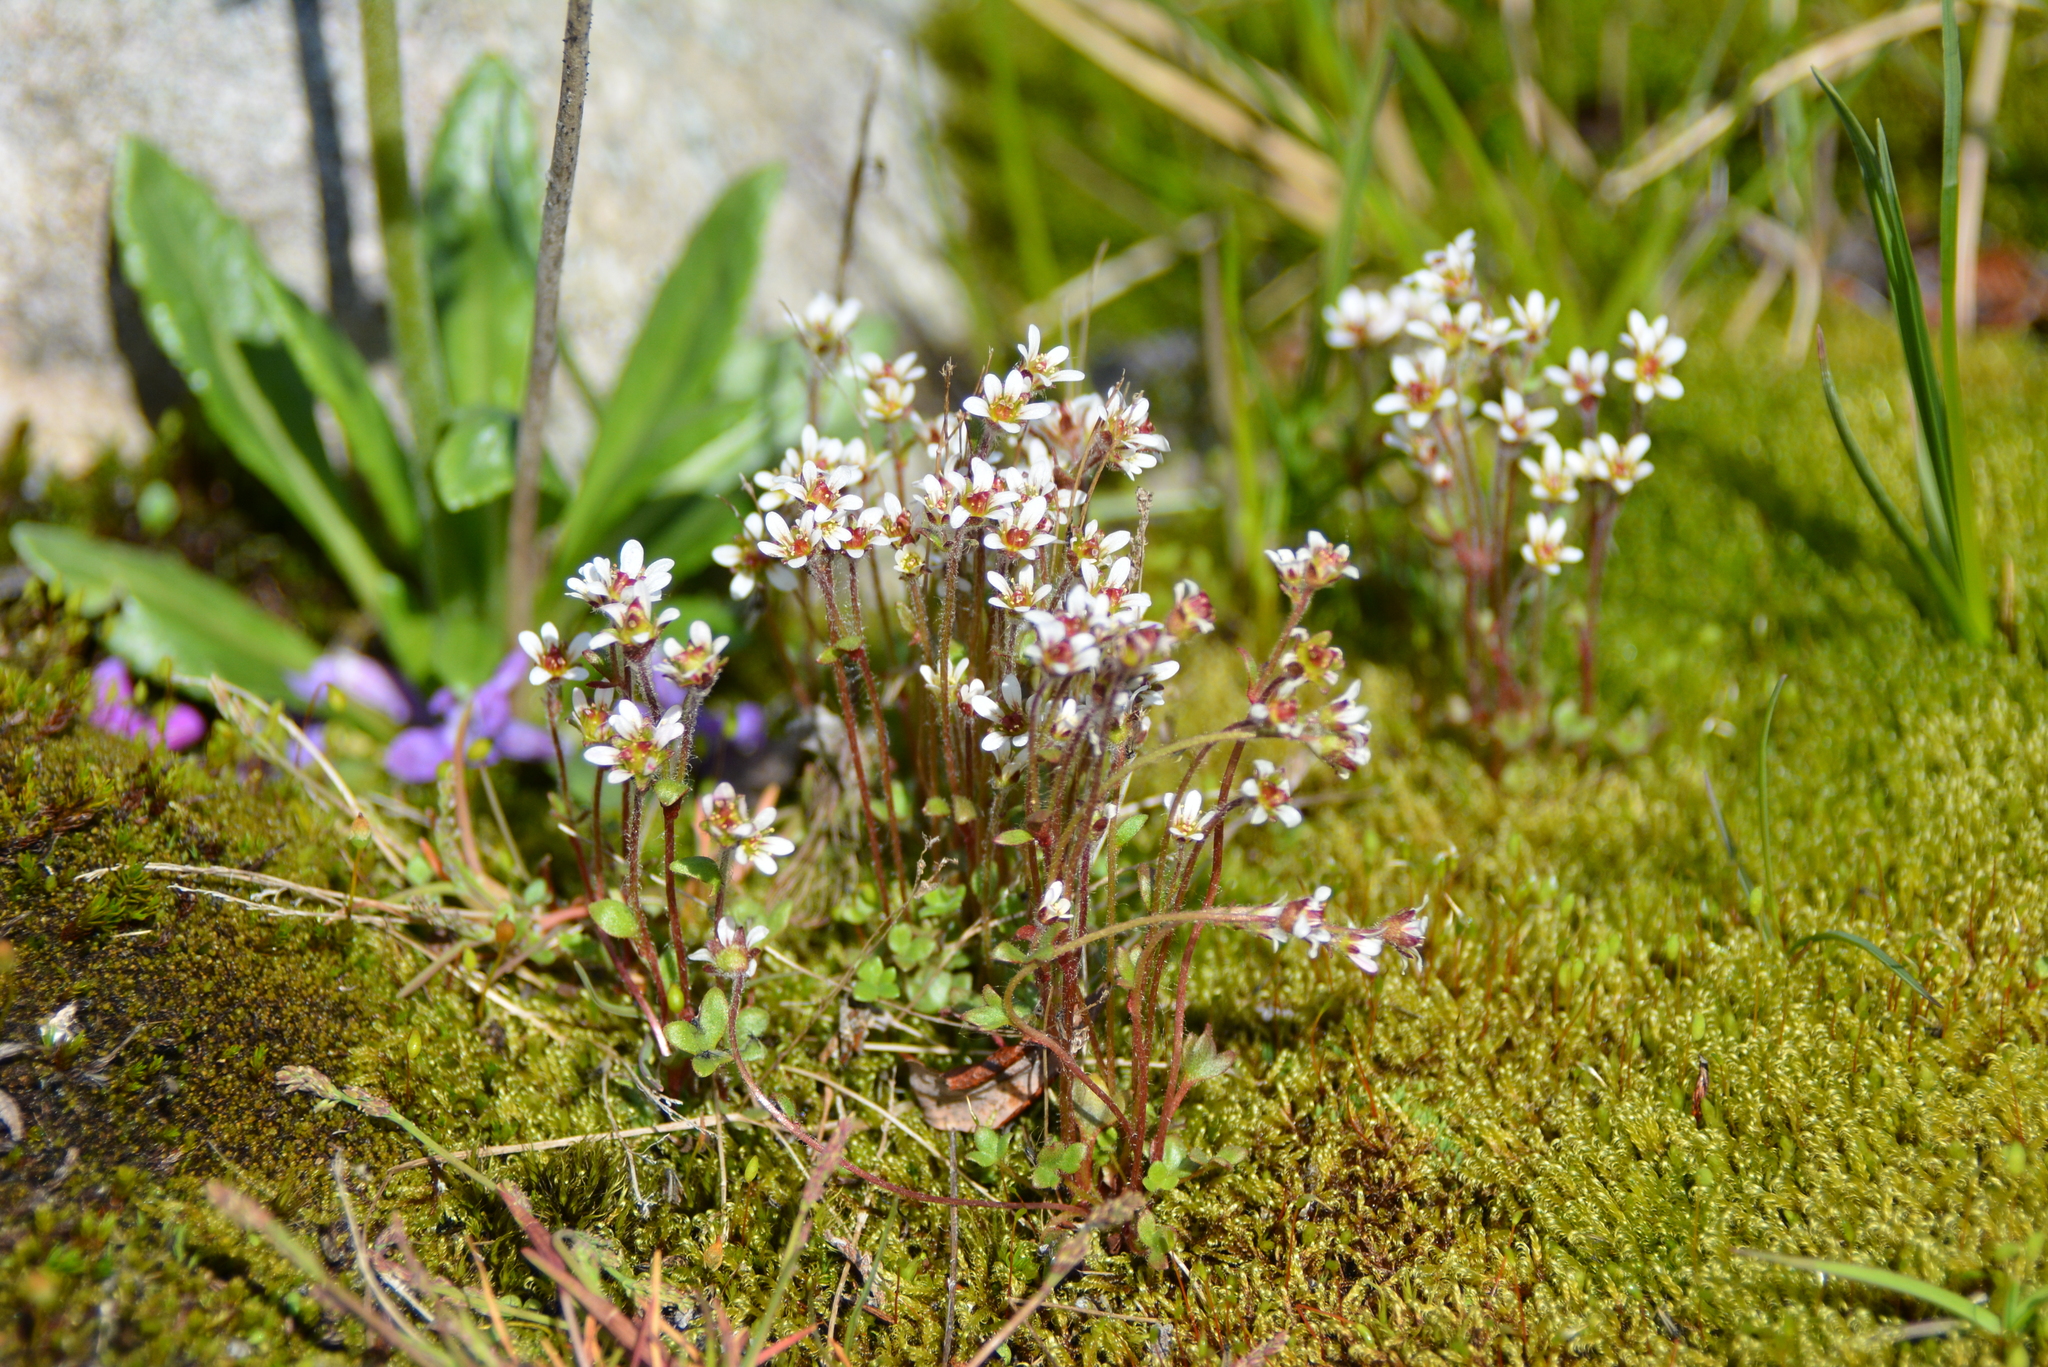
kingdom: Plantae
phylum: Tracheophyta
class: Magnoliopsida
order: Saxifragales
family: Saxifragaceae
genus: Saxifraga
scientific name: Saxifraga hyperborea
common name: Arctic saxifrage
